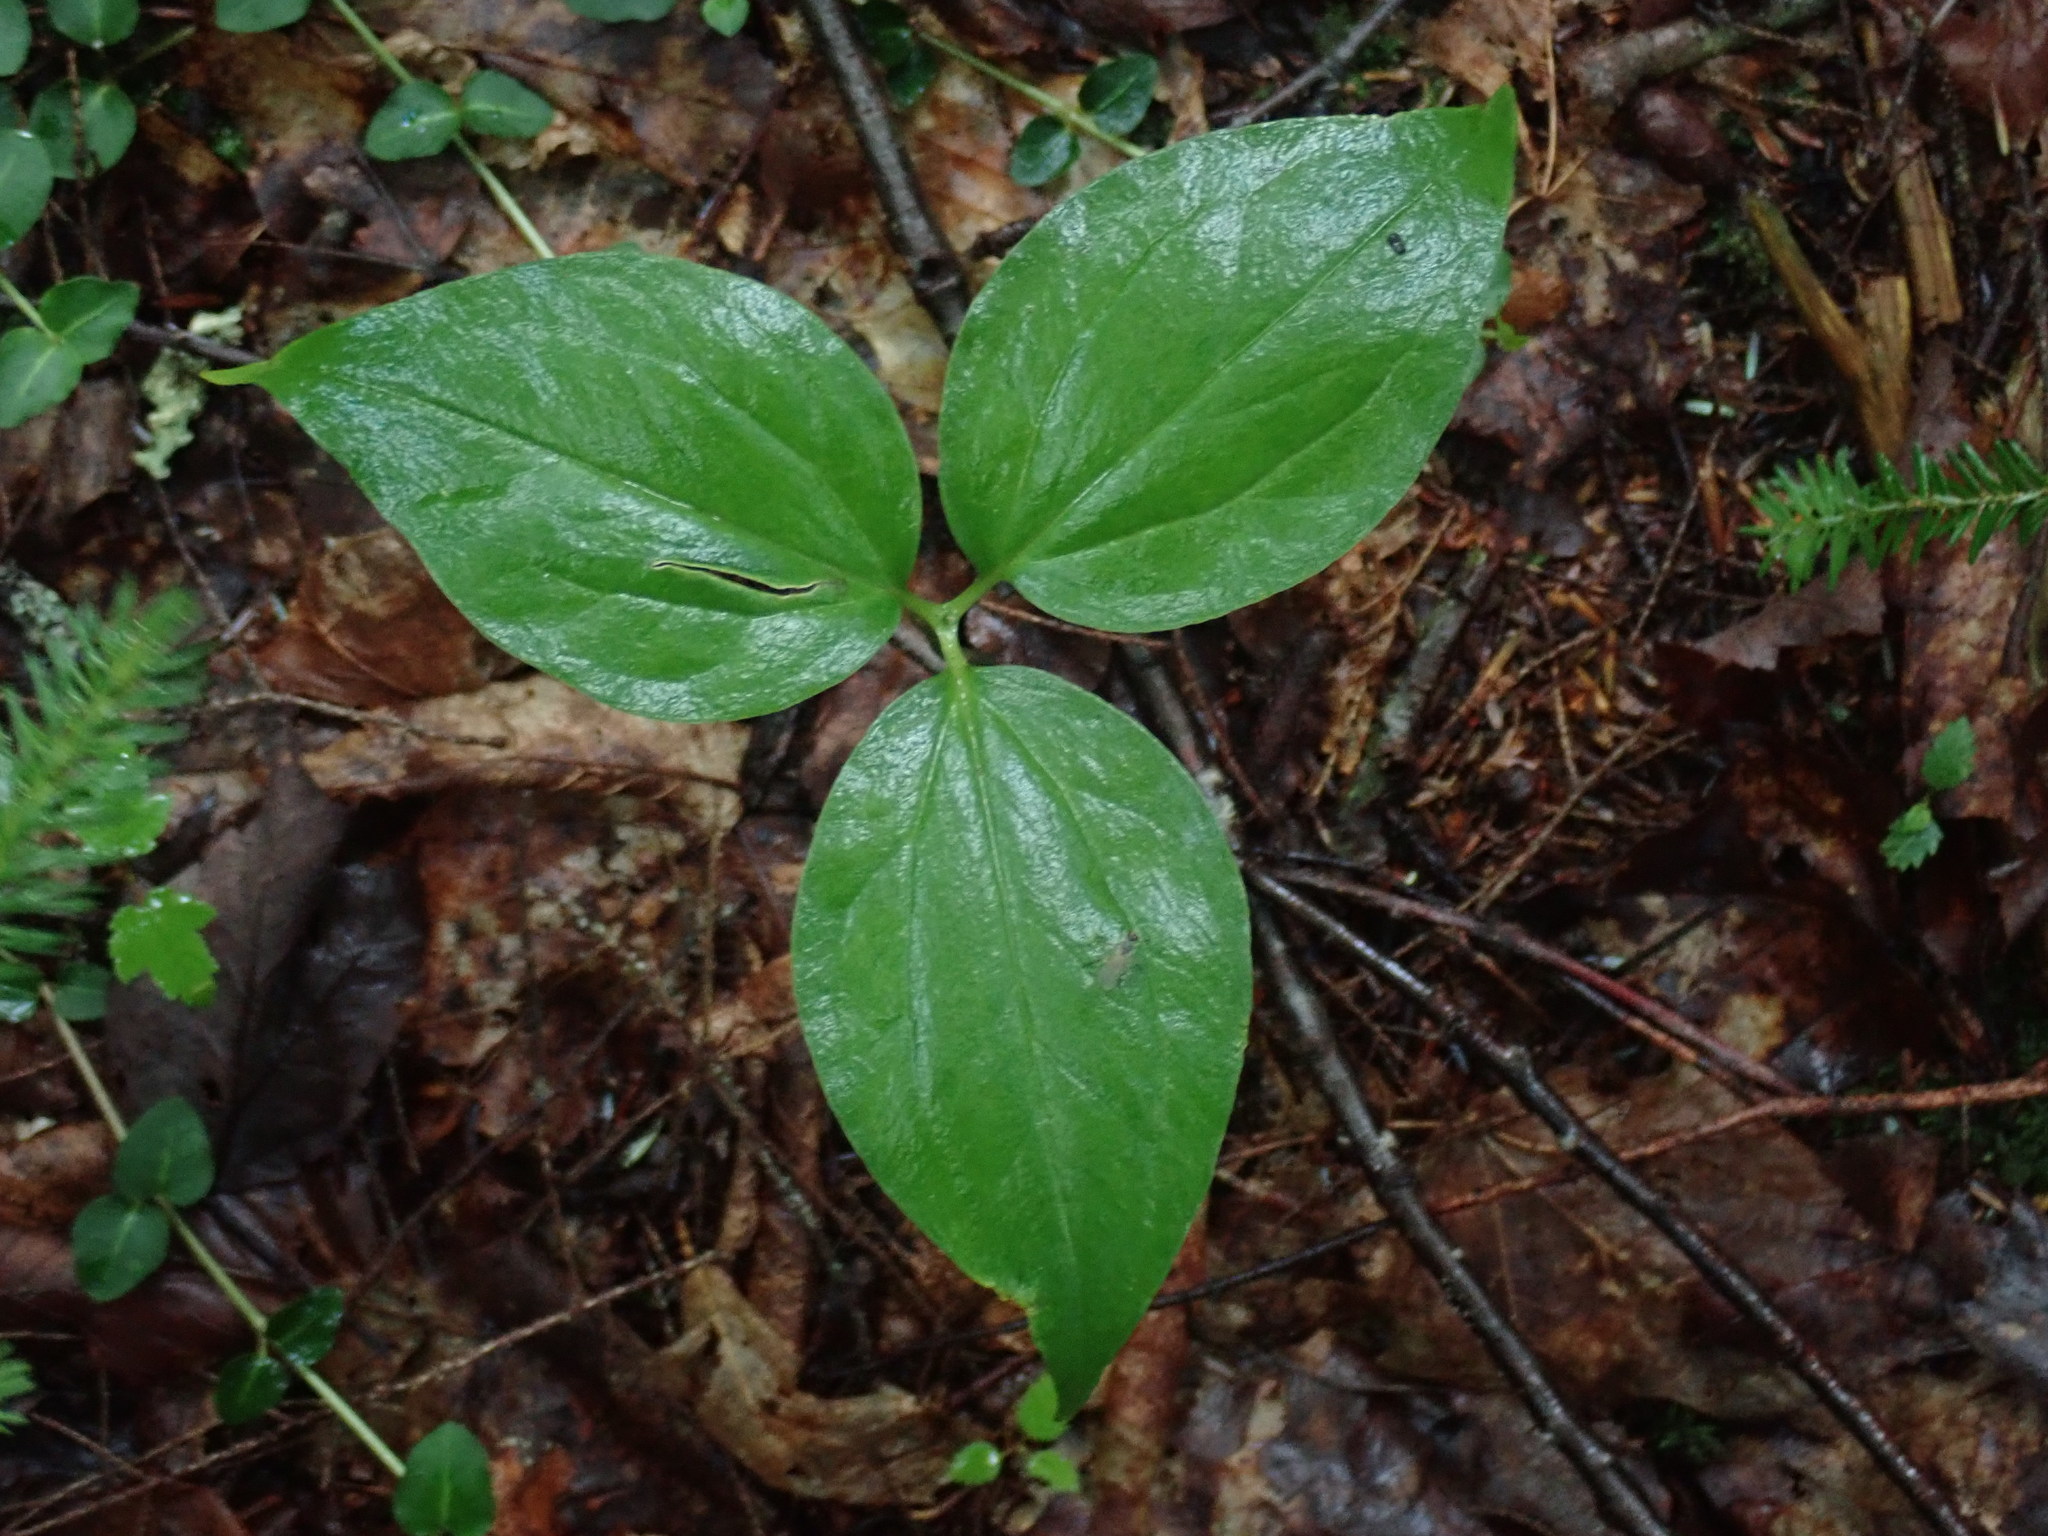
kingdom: Plantae
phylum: Tracheophyta
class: Liliopsida
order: Liliales
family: Melanthiaceae
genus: Trillium
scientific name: Trillium undulatum
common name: Paint trillium
